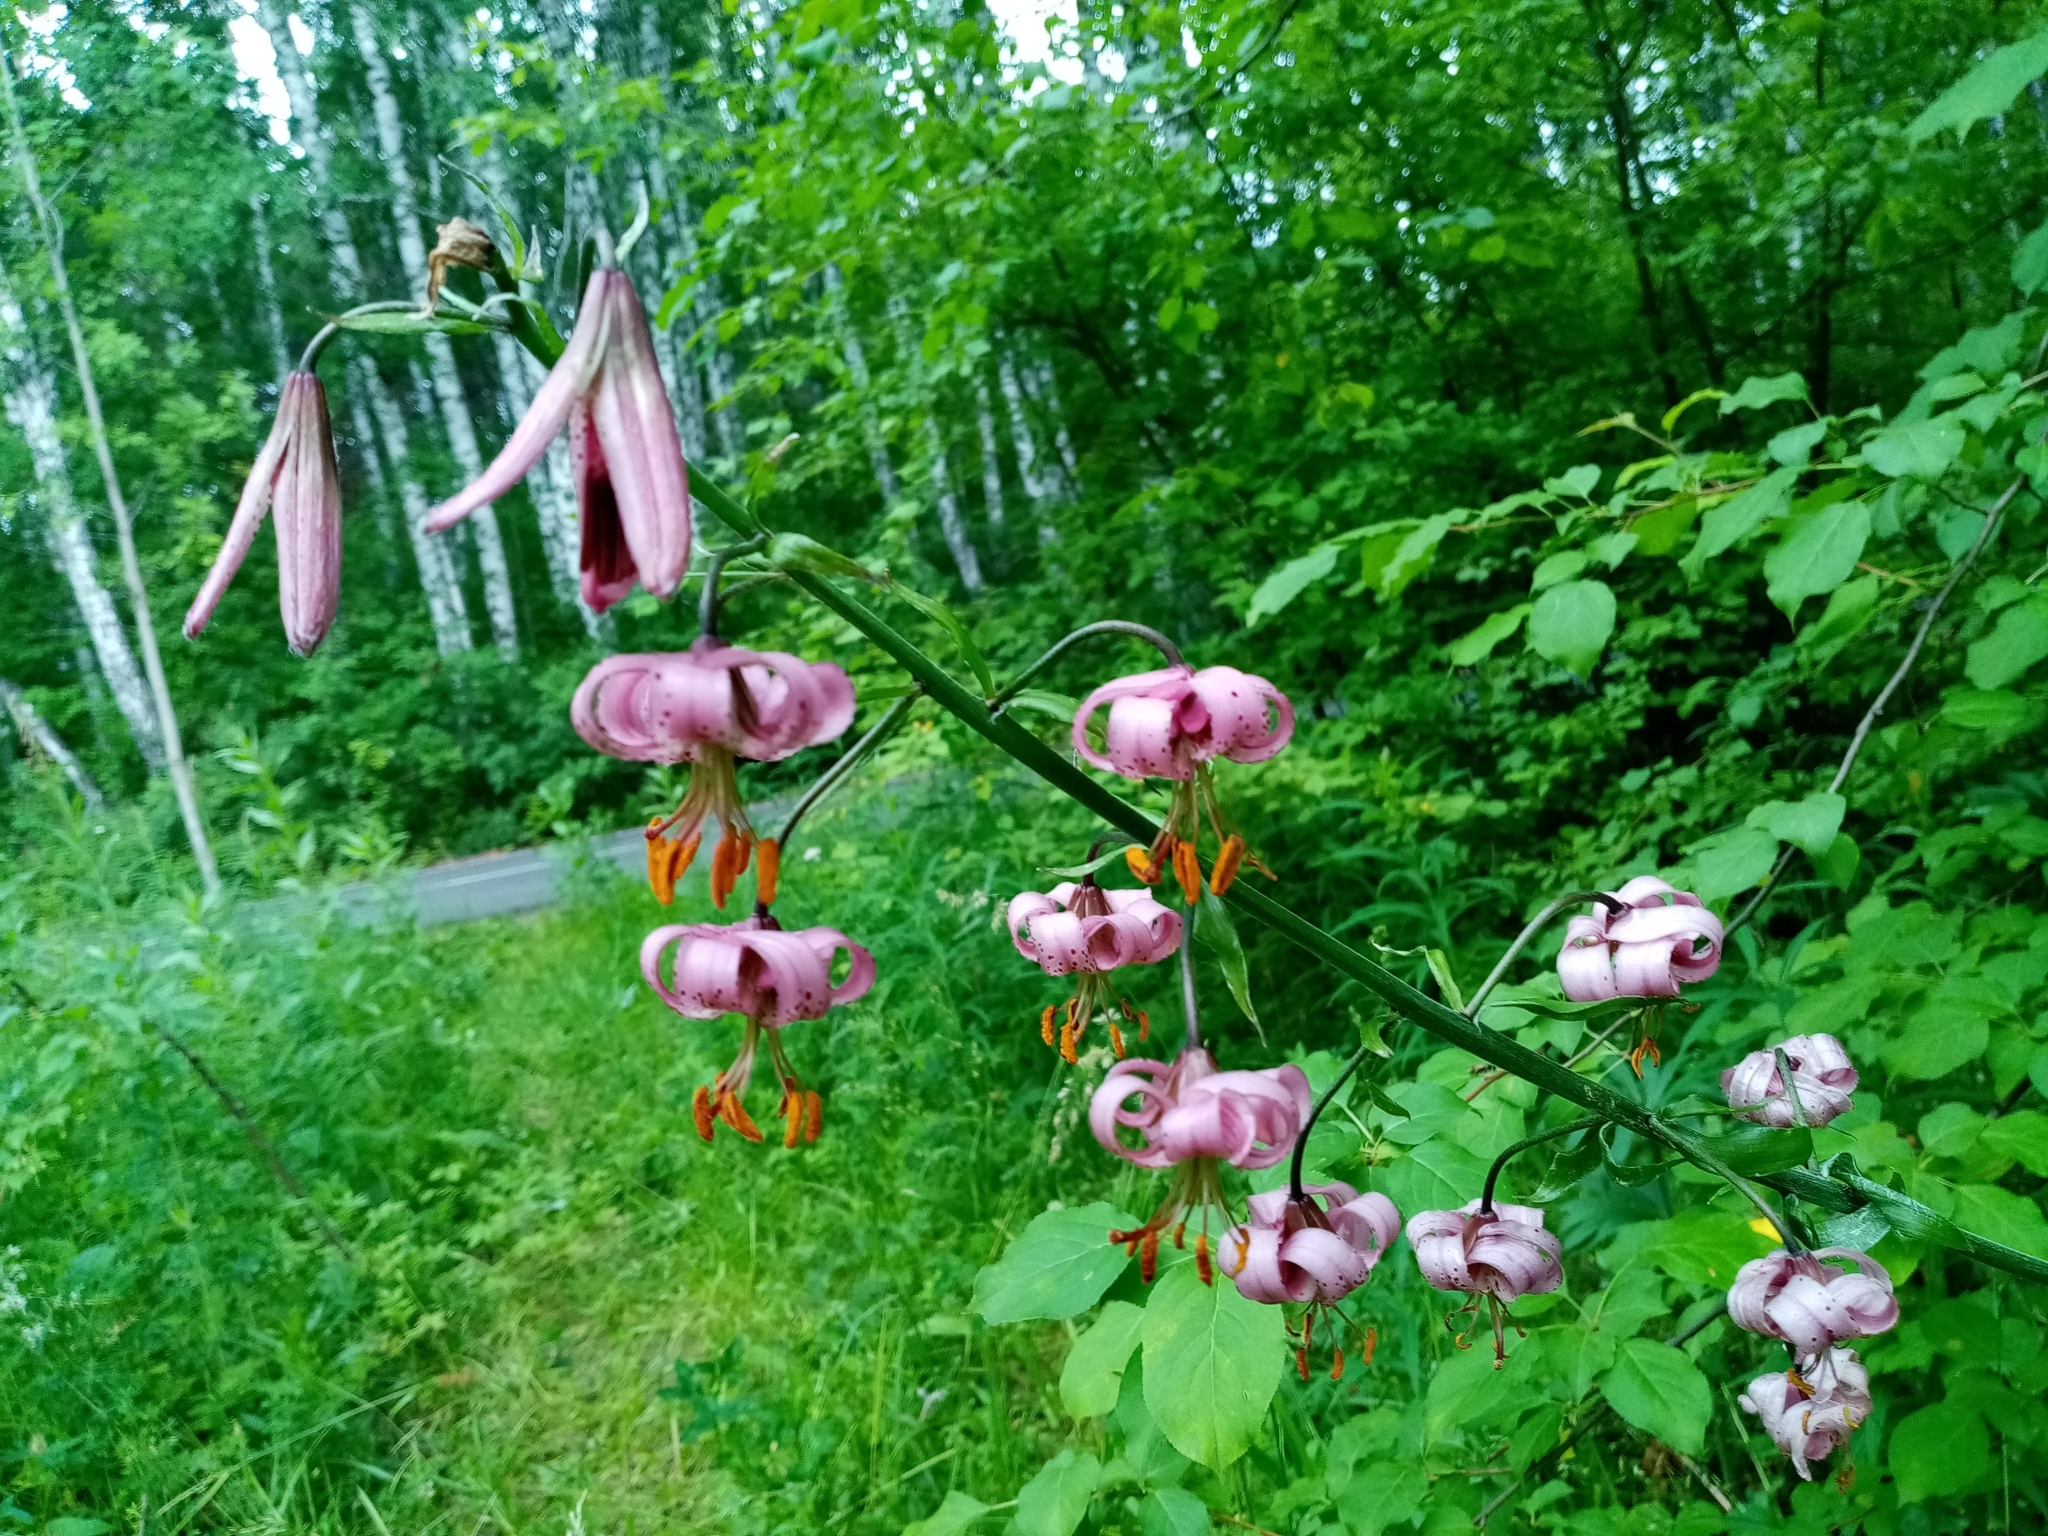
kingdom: Plantae
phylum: Tracheophyta
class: Liliopsida
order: Liliales
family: Liliaceae
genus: Lilium
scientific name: Lilium martagon
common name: Martagon lily
